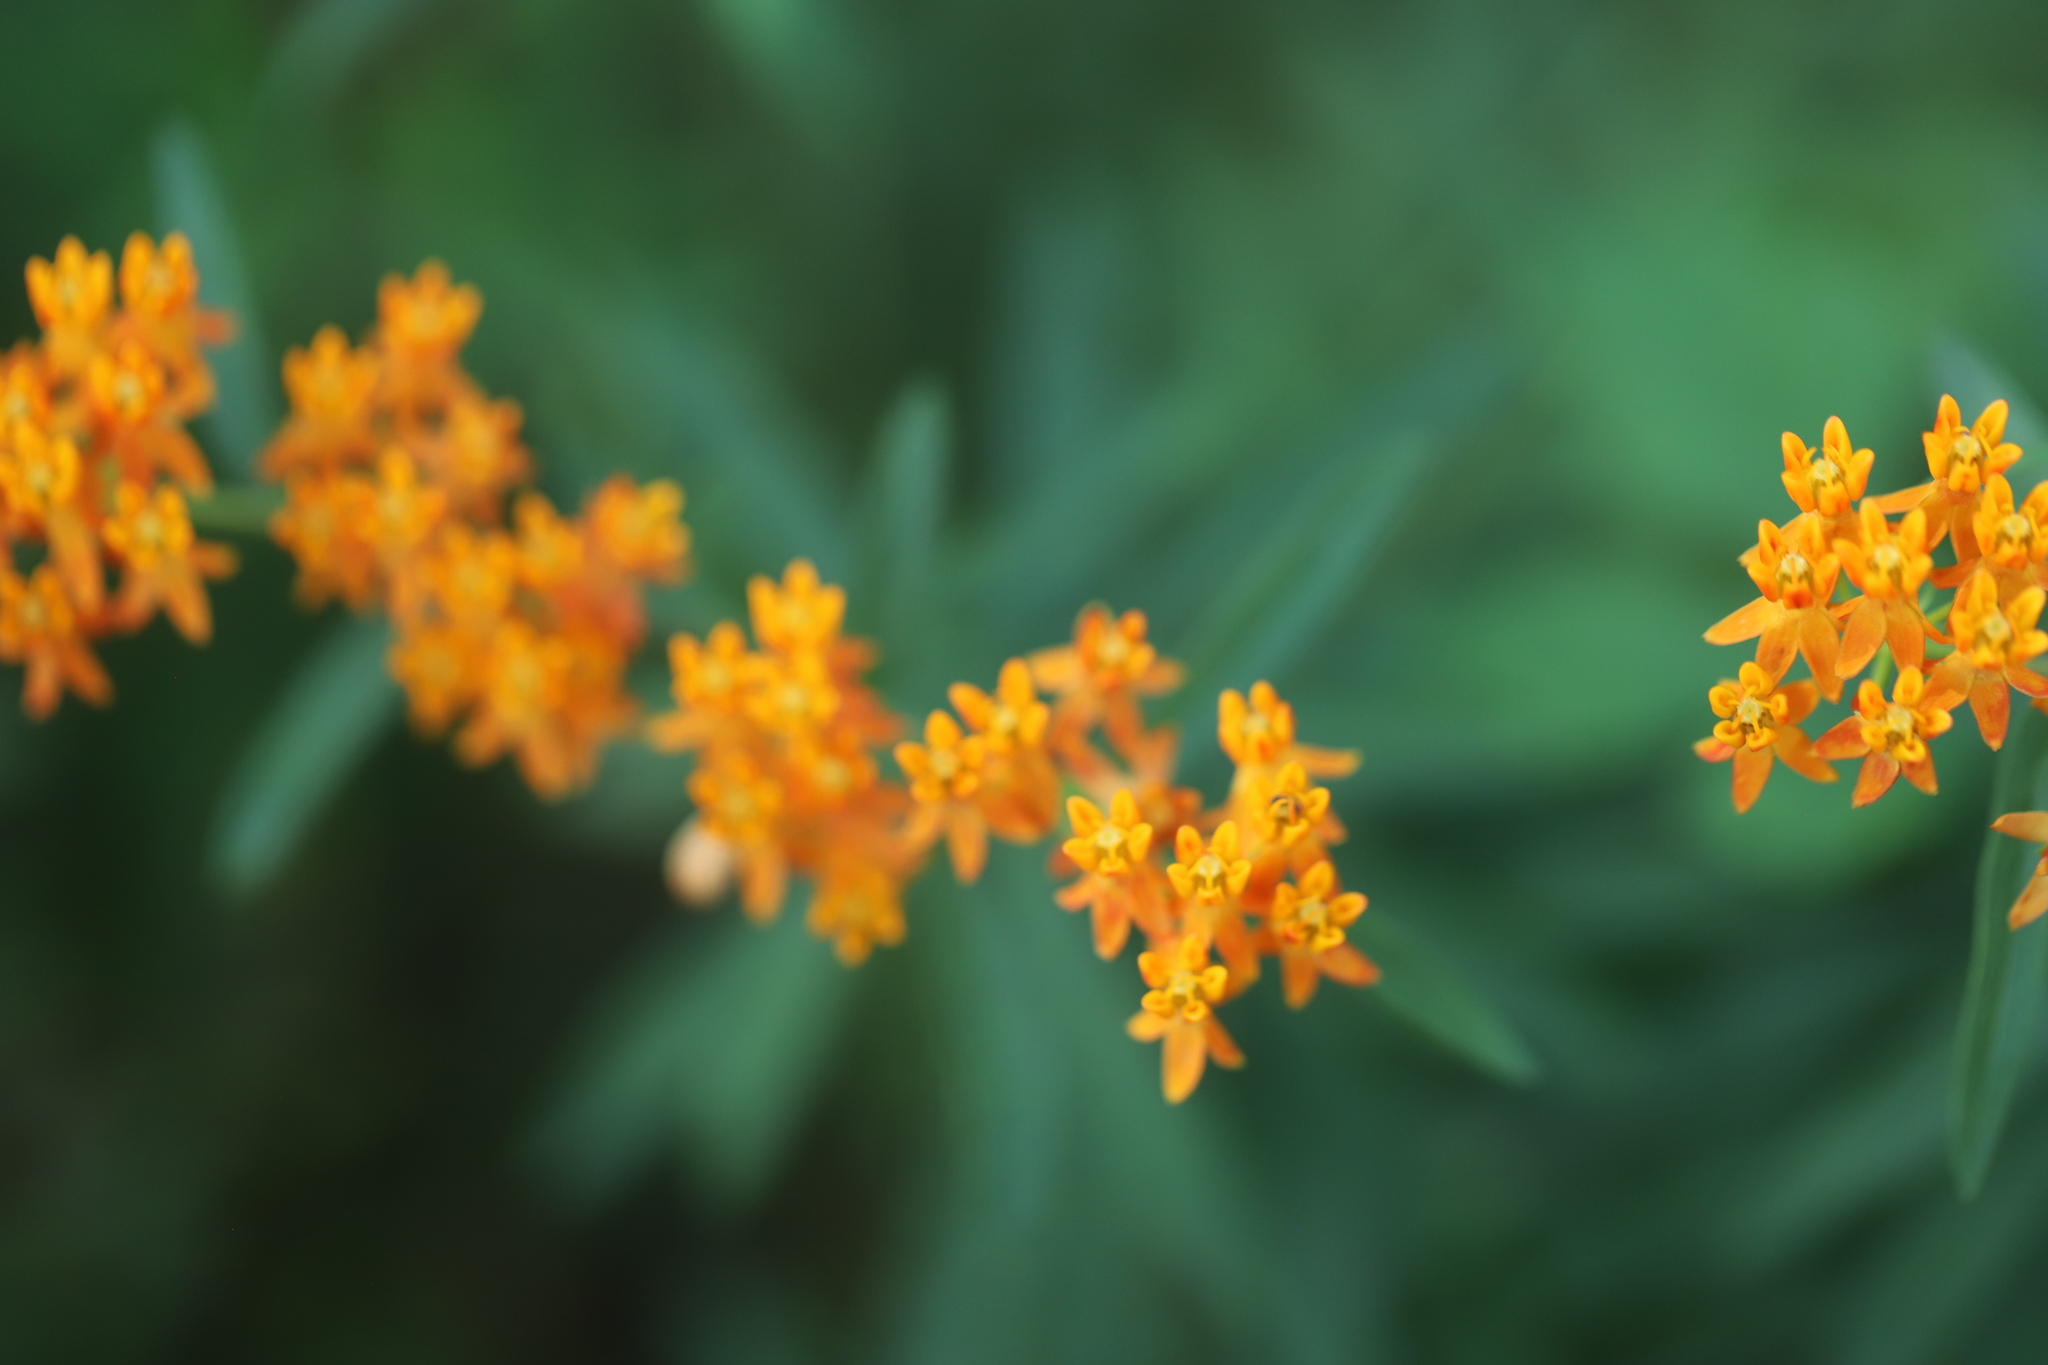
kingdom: Plantae
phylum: Tracheophyta
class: Magnoliopsida
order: Gentianales
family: Apocynaceae
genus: Asclepias
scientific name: Asclepias tuberosa
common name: Butterfly milkweed
